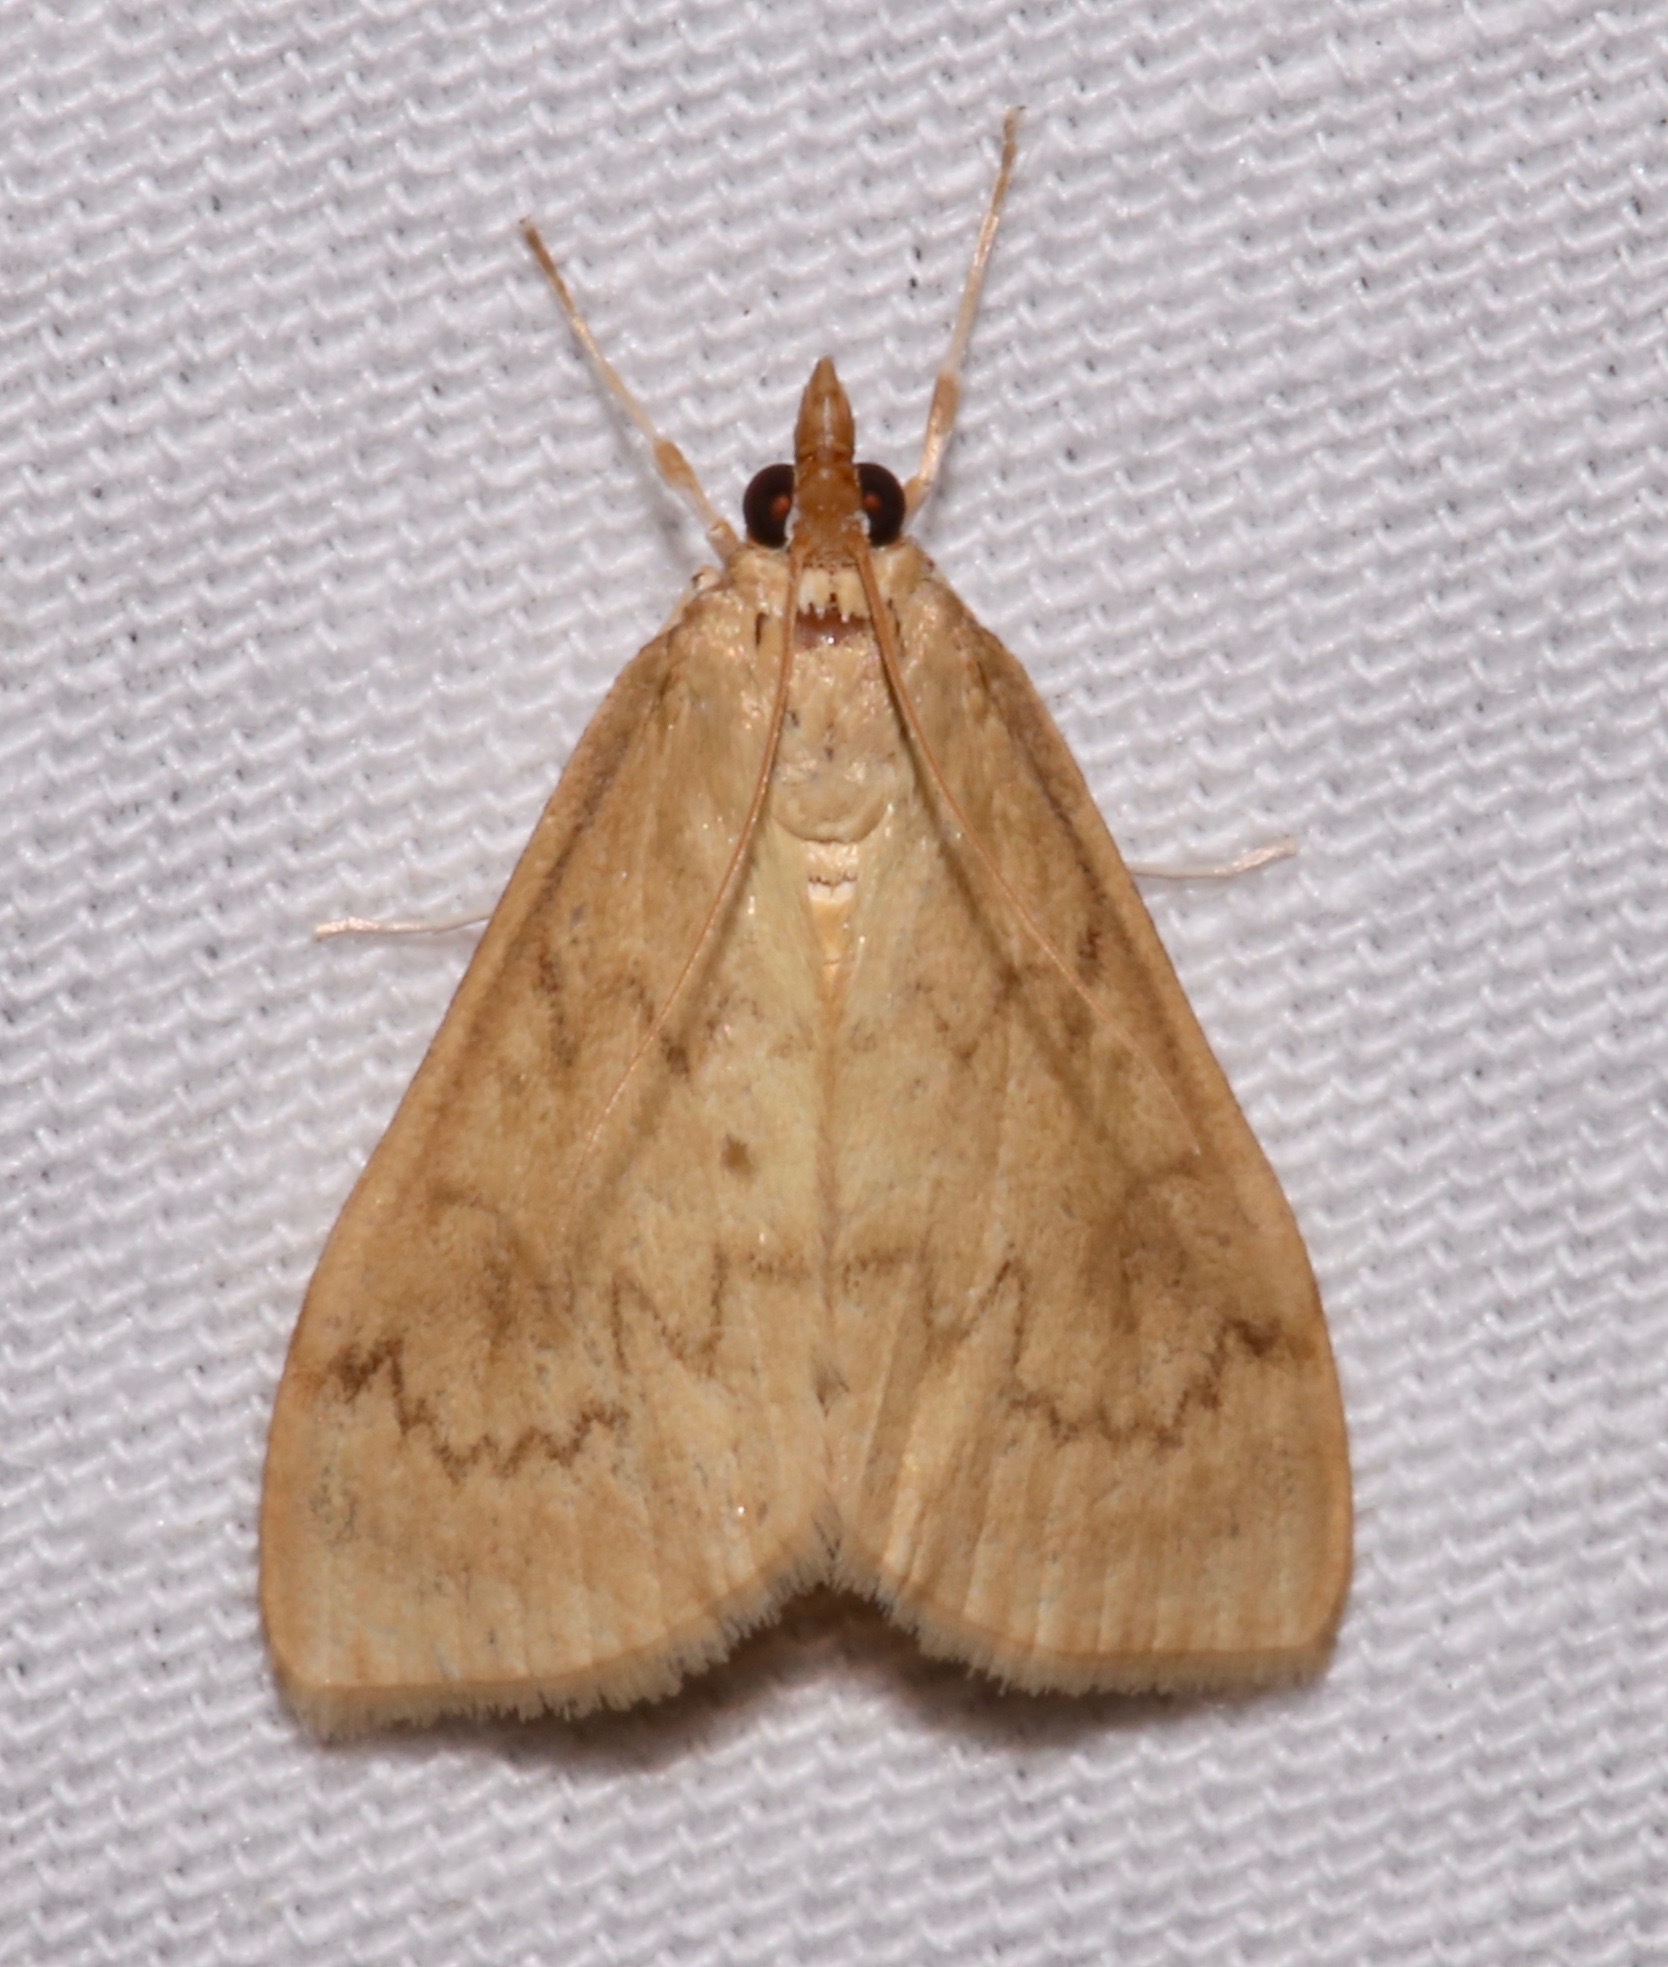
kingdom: Animalia
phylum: Arthropoda
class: Insecta
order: Lepidoptera
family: Crambidae
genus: Ostrinia
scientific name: Ostrinia penitalis
